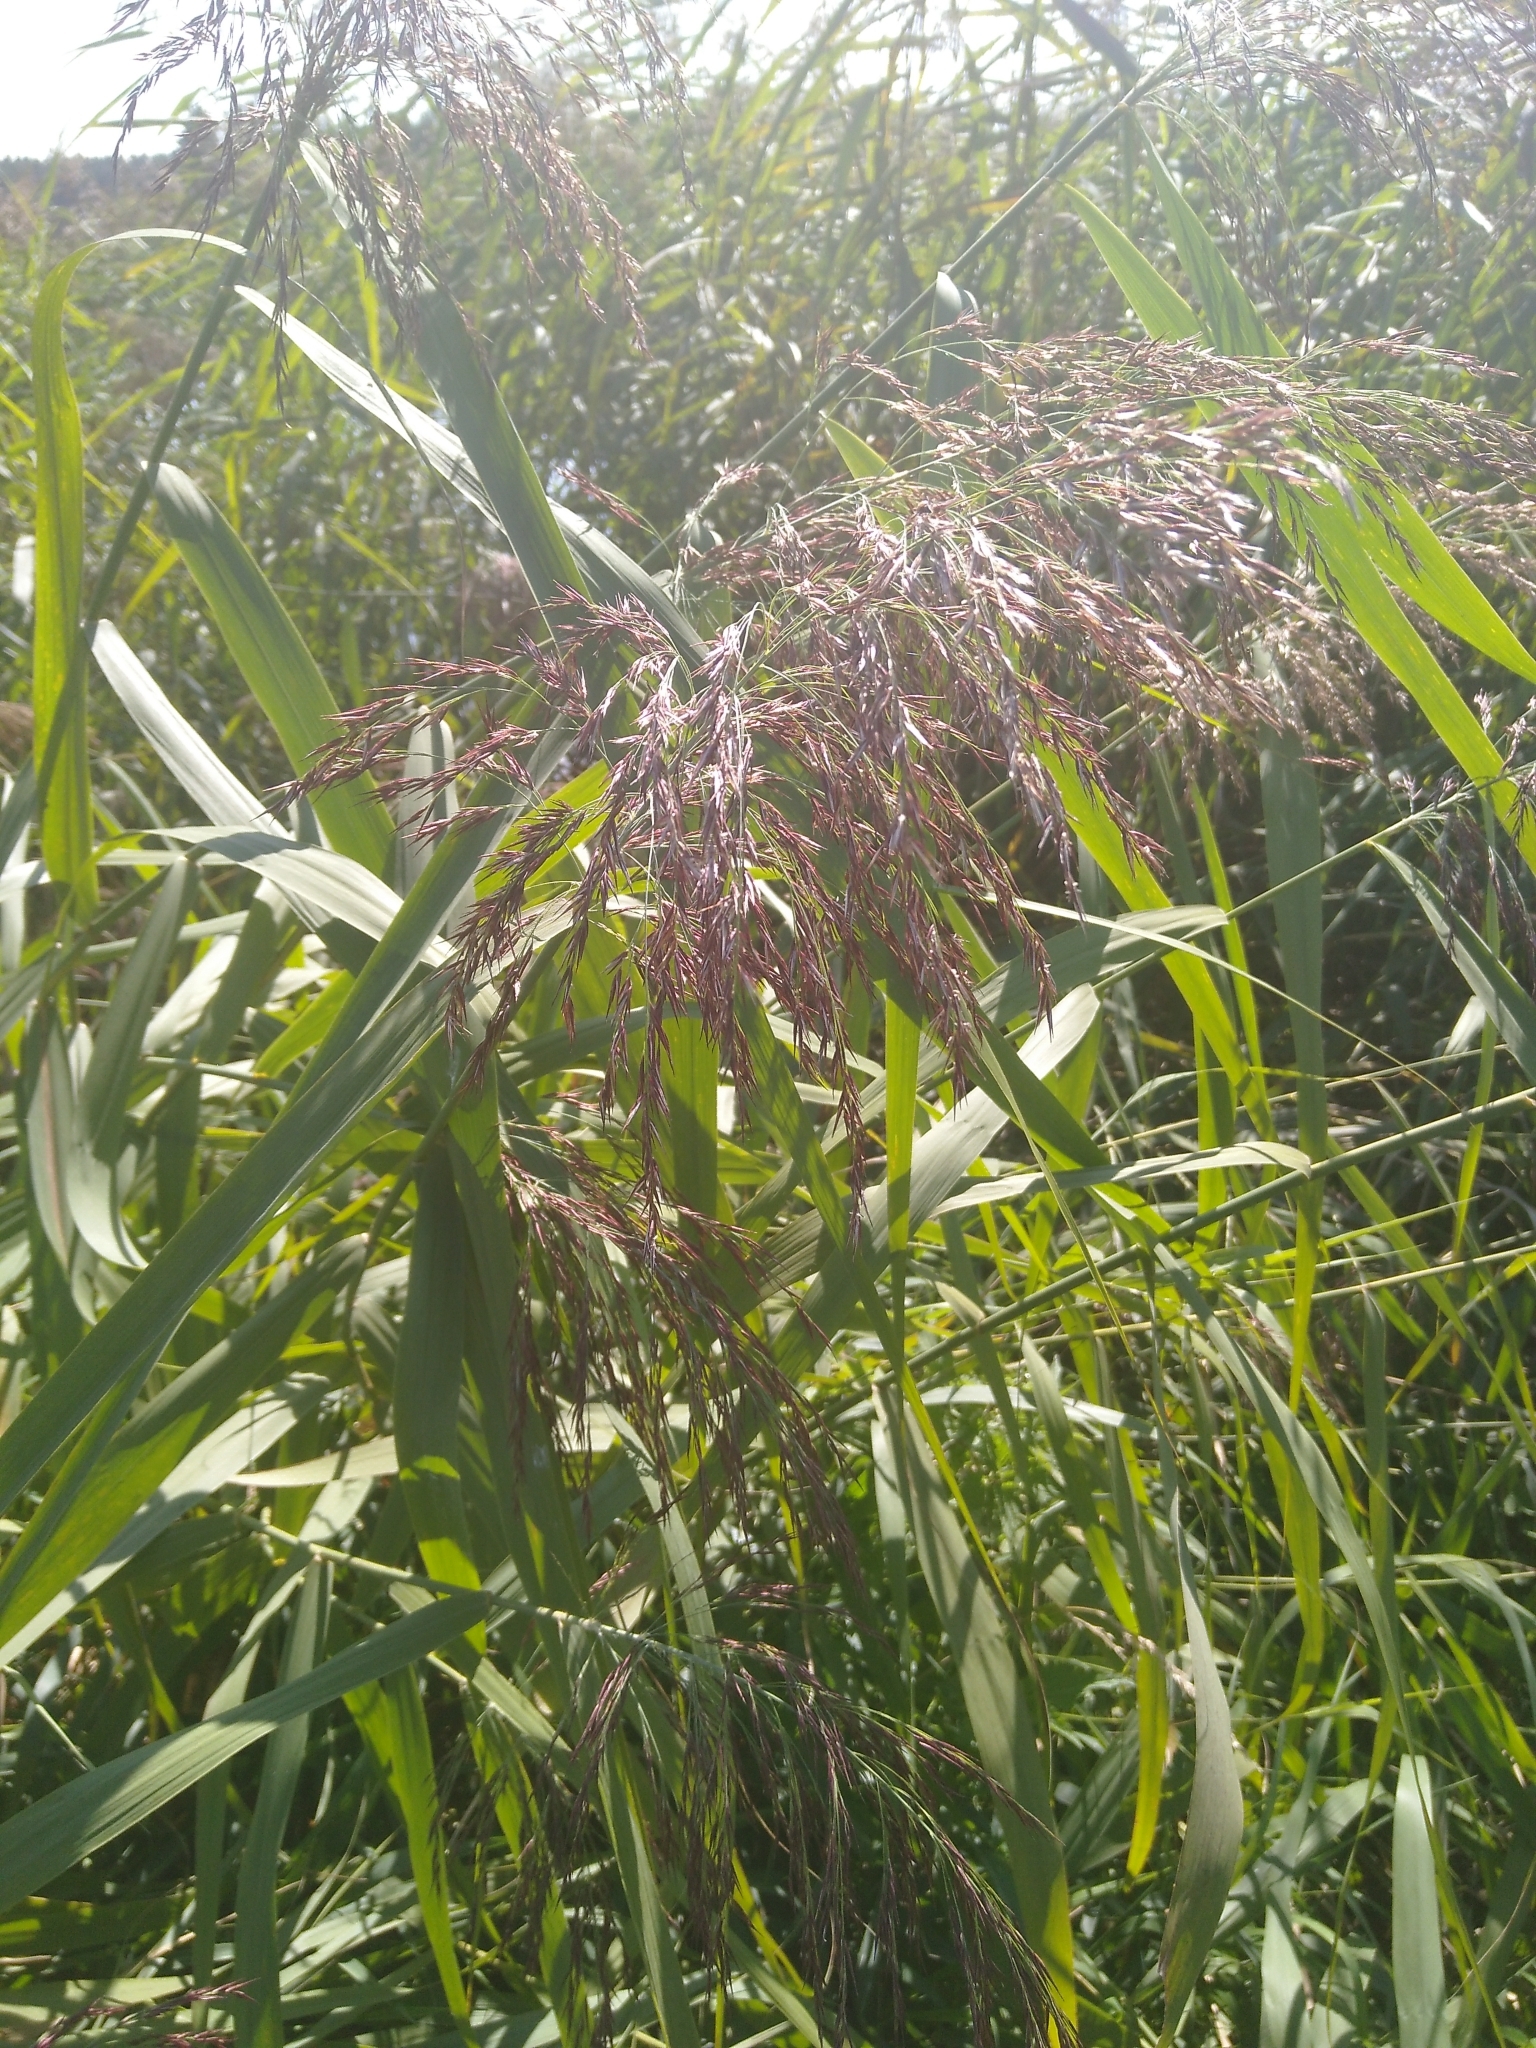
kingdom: Plantae
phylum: Tracheophyta
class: Liliopsida
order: Poales
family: Poaceae
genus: Phragmites
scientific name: Phragmites australis
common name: Common reed
